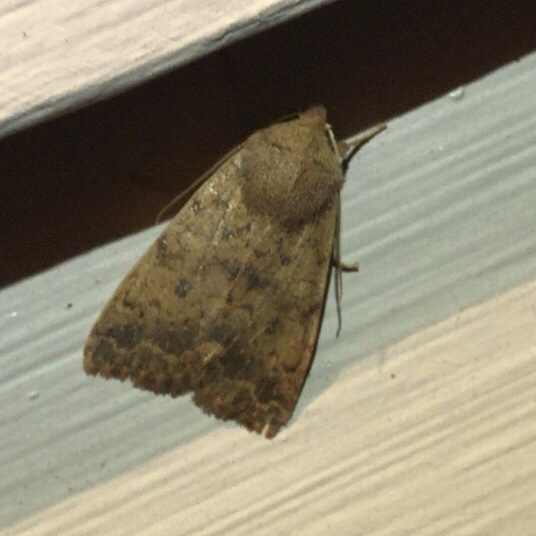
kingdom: Animalia
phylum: Arthropoda
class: Insecta
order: Lepidoptera
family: Noctuidae
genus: Agrochola
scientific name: Agrochola bicolorago
